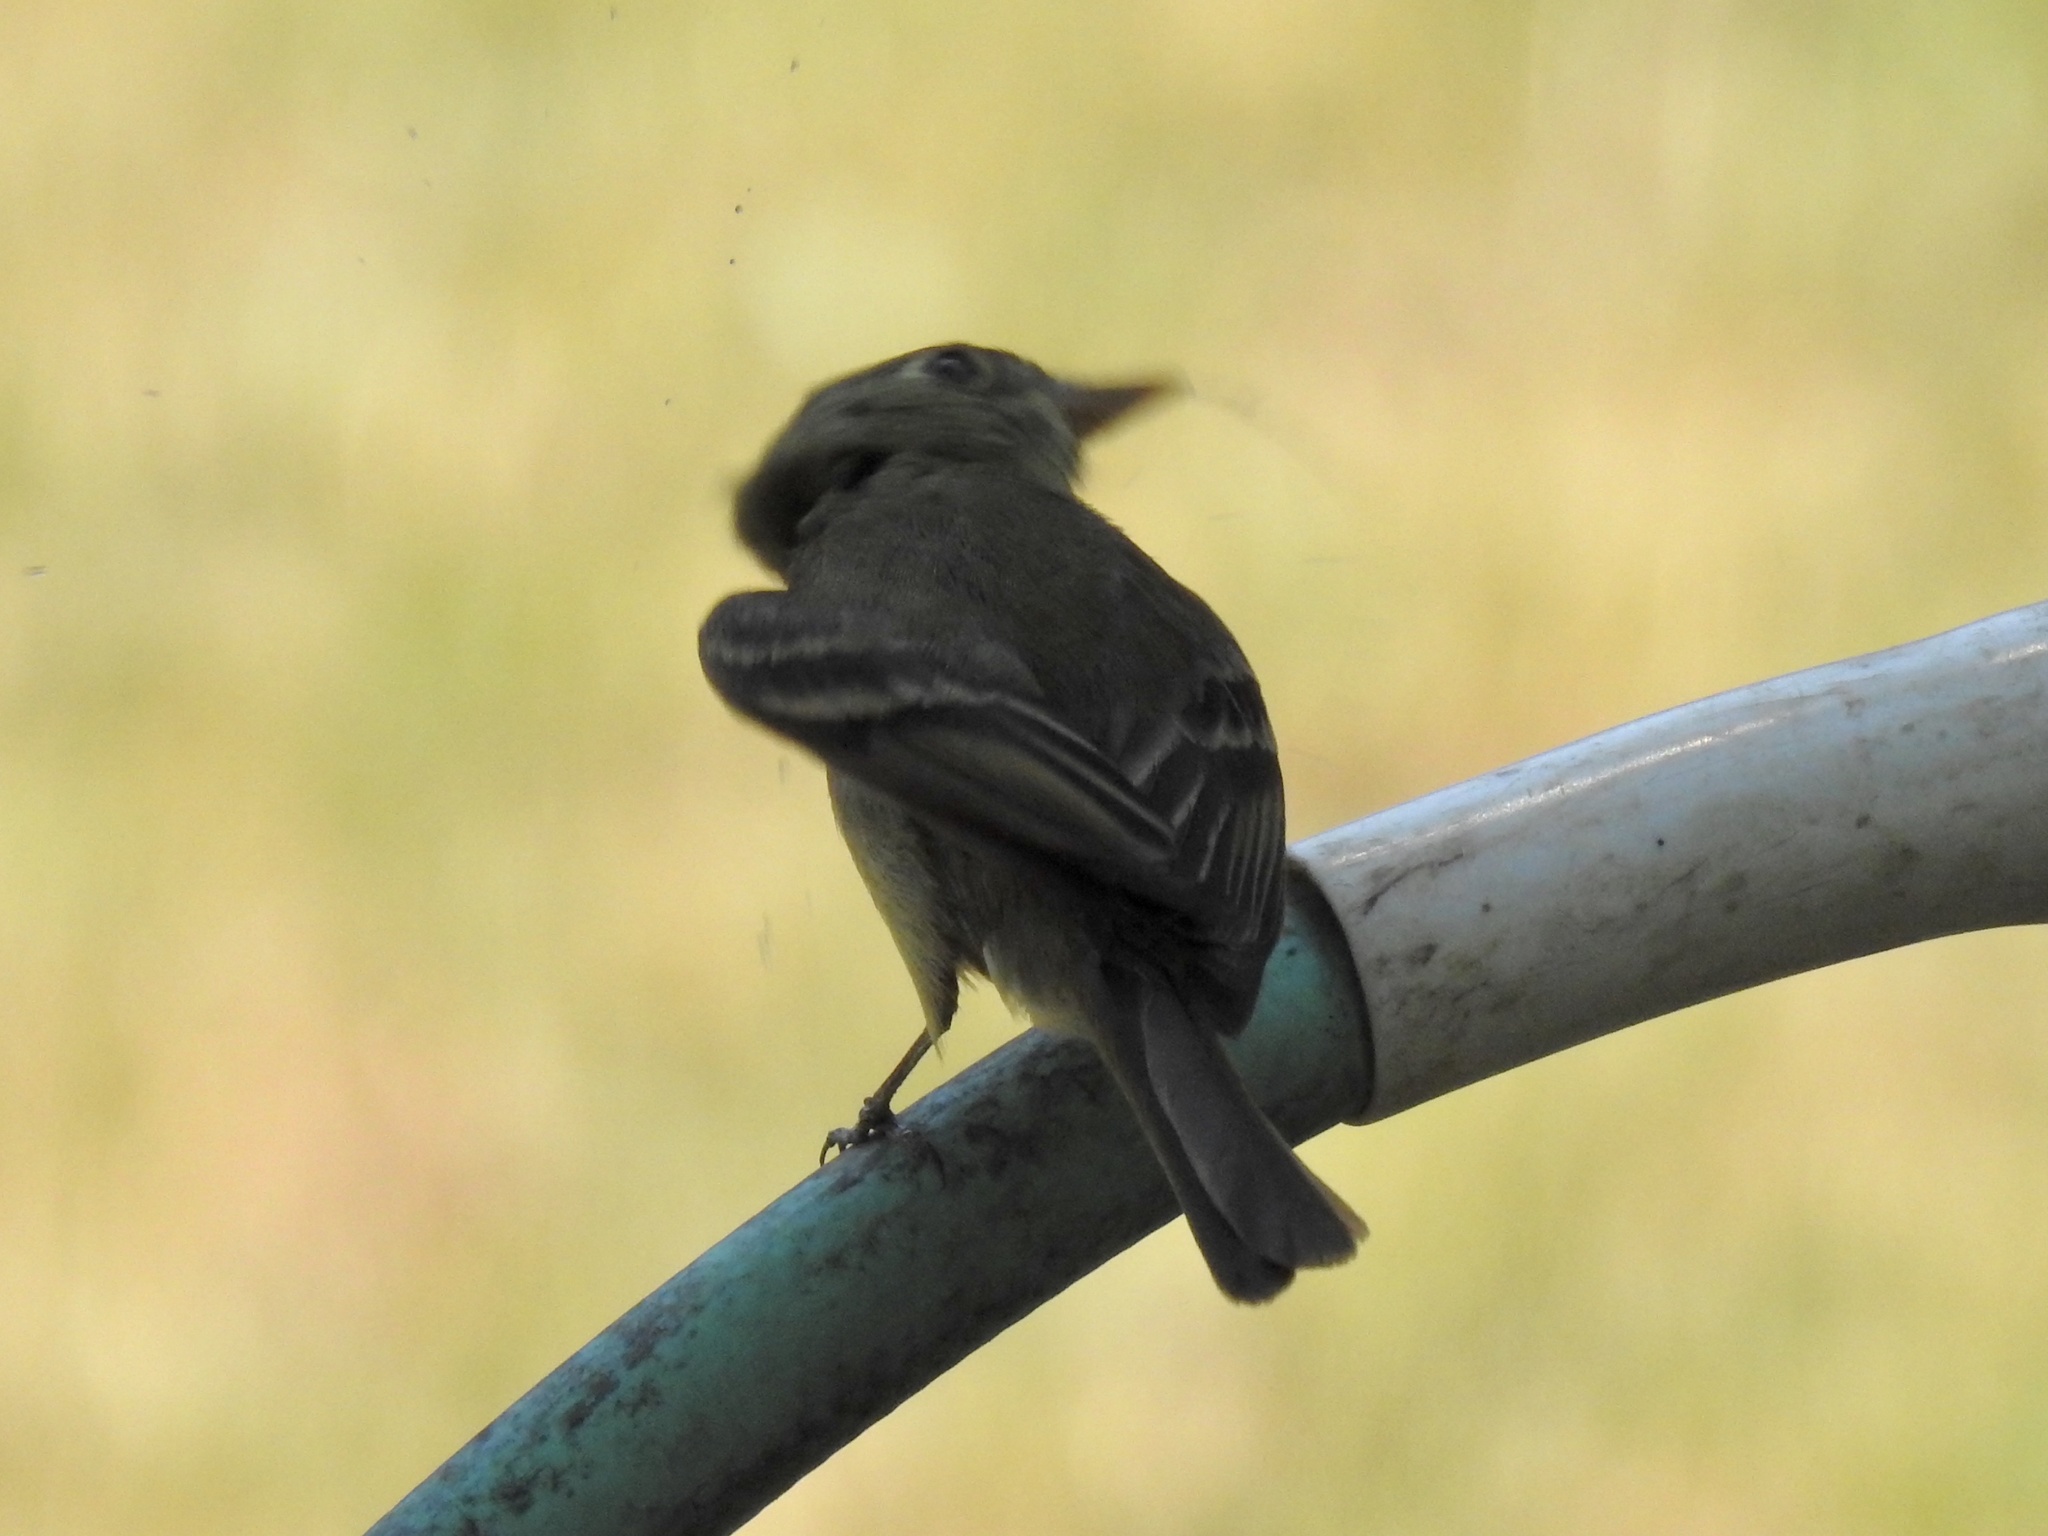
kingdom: Animalia
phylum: Chordata
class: Aves
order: Passeriformes
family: Tyrannidae
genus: Empidonax
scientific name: Empidonax difficilis
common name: Pacific-slope flycatcher
